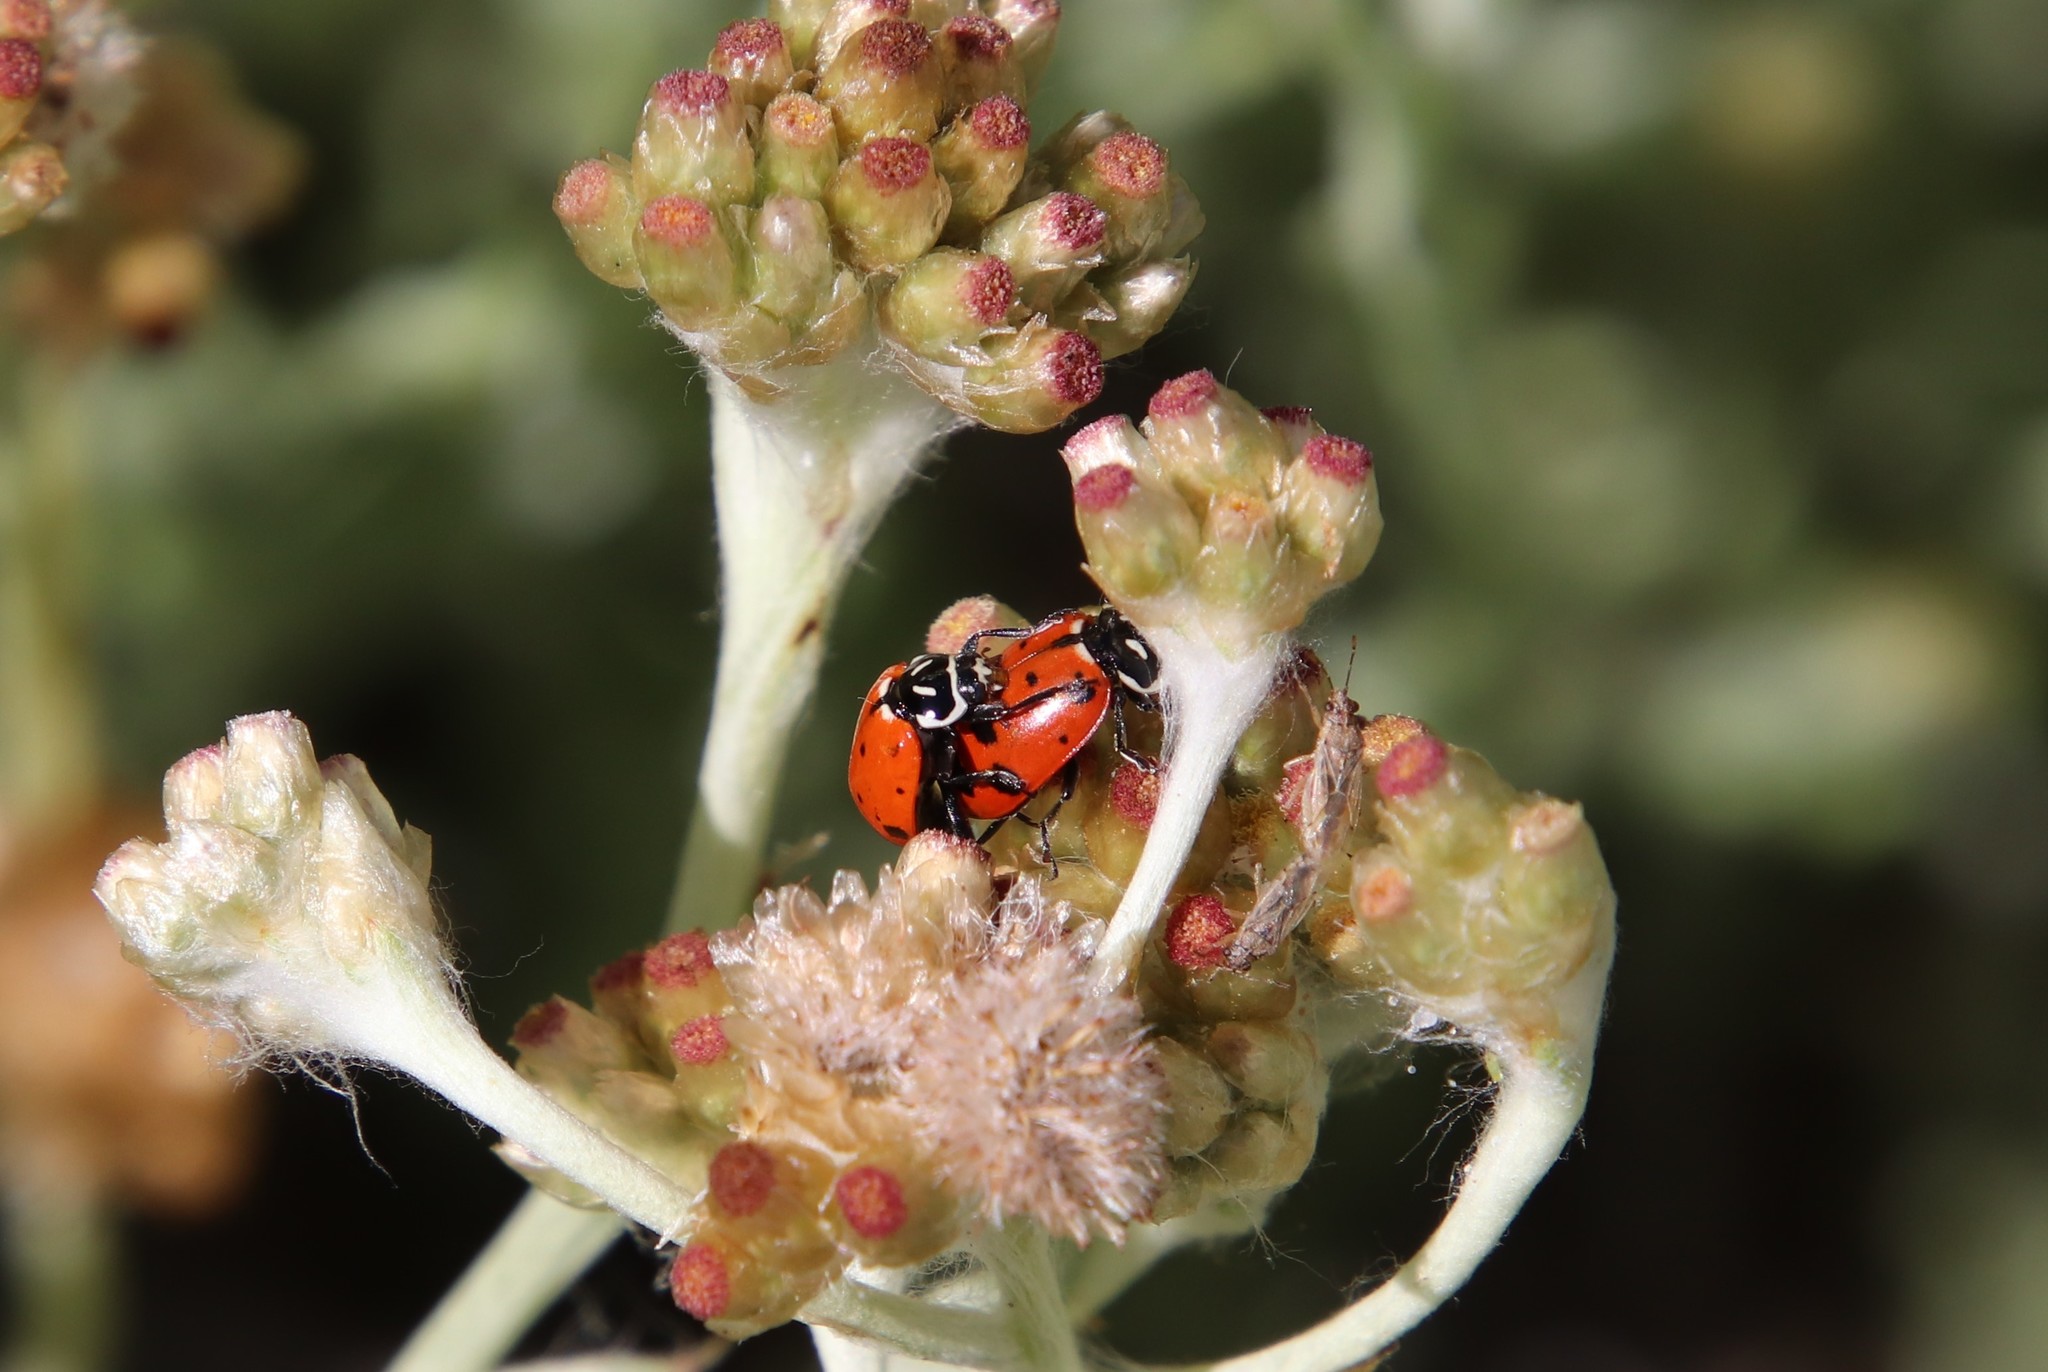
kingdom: Animalia
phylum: Arthropoda
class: Insecta
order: Coleoptera
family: Coccinellidae
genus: Hippodamia
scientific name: Hippodamia convergens
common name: Convergent lady beetle
